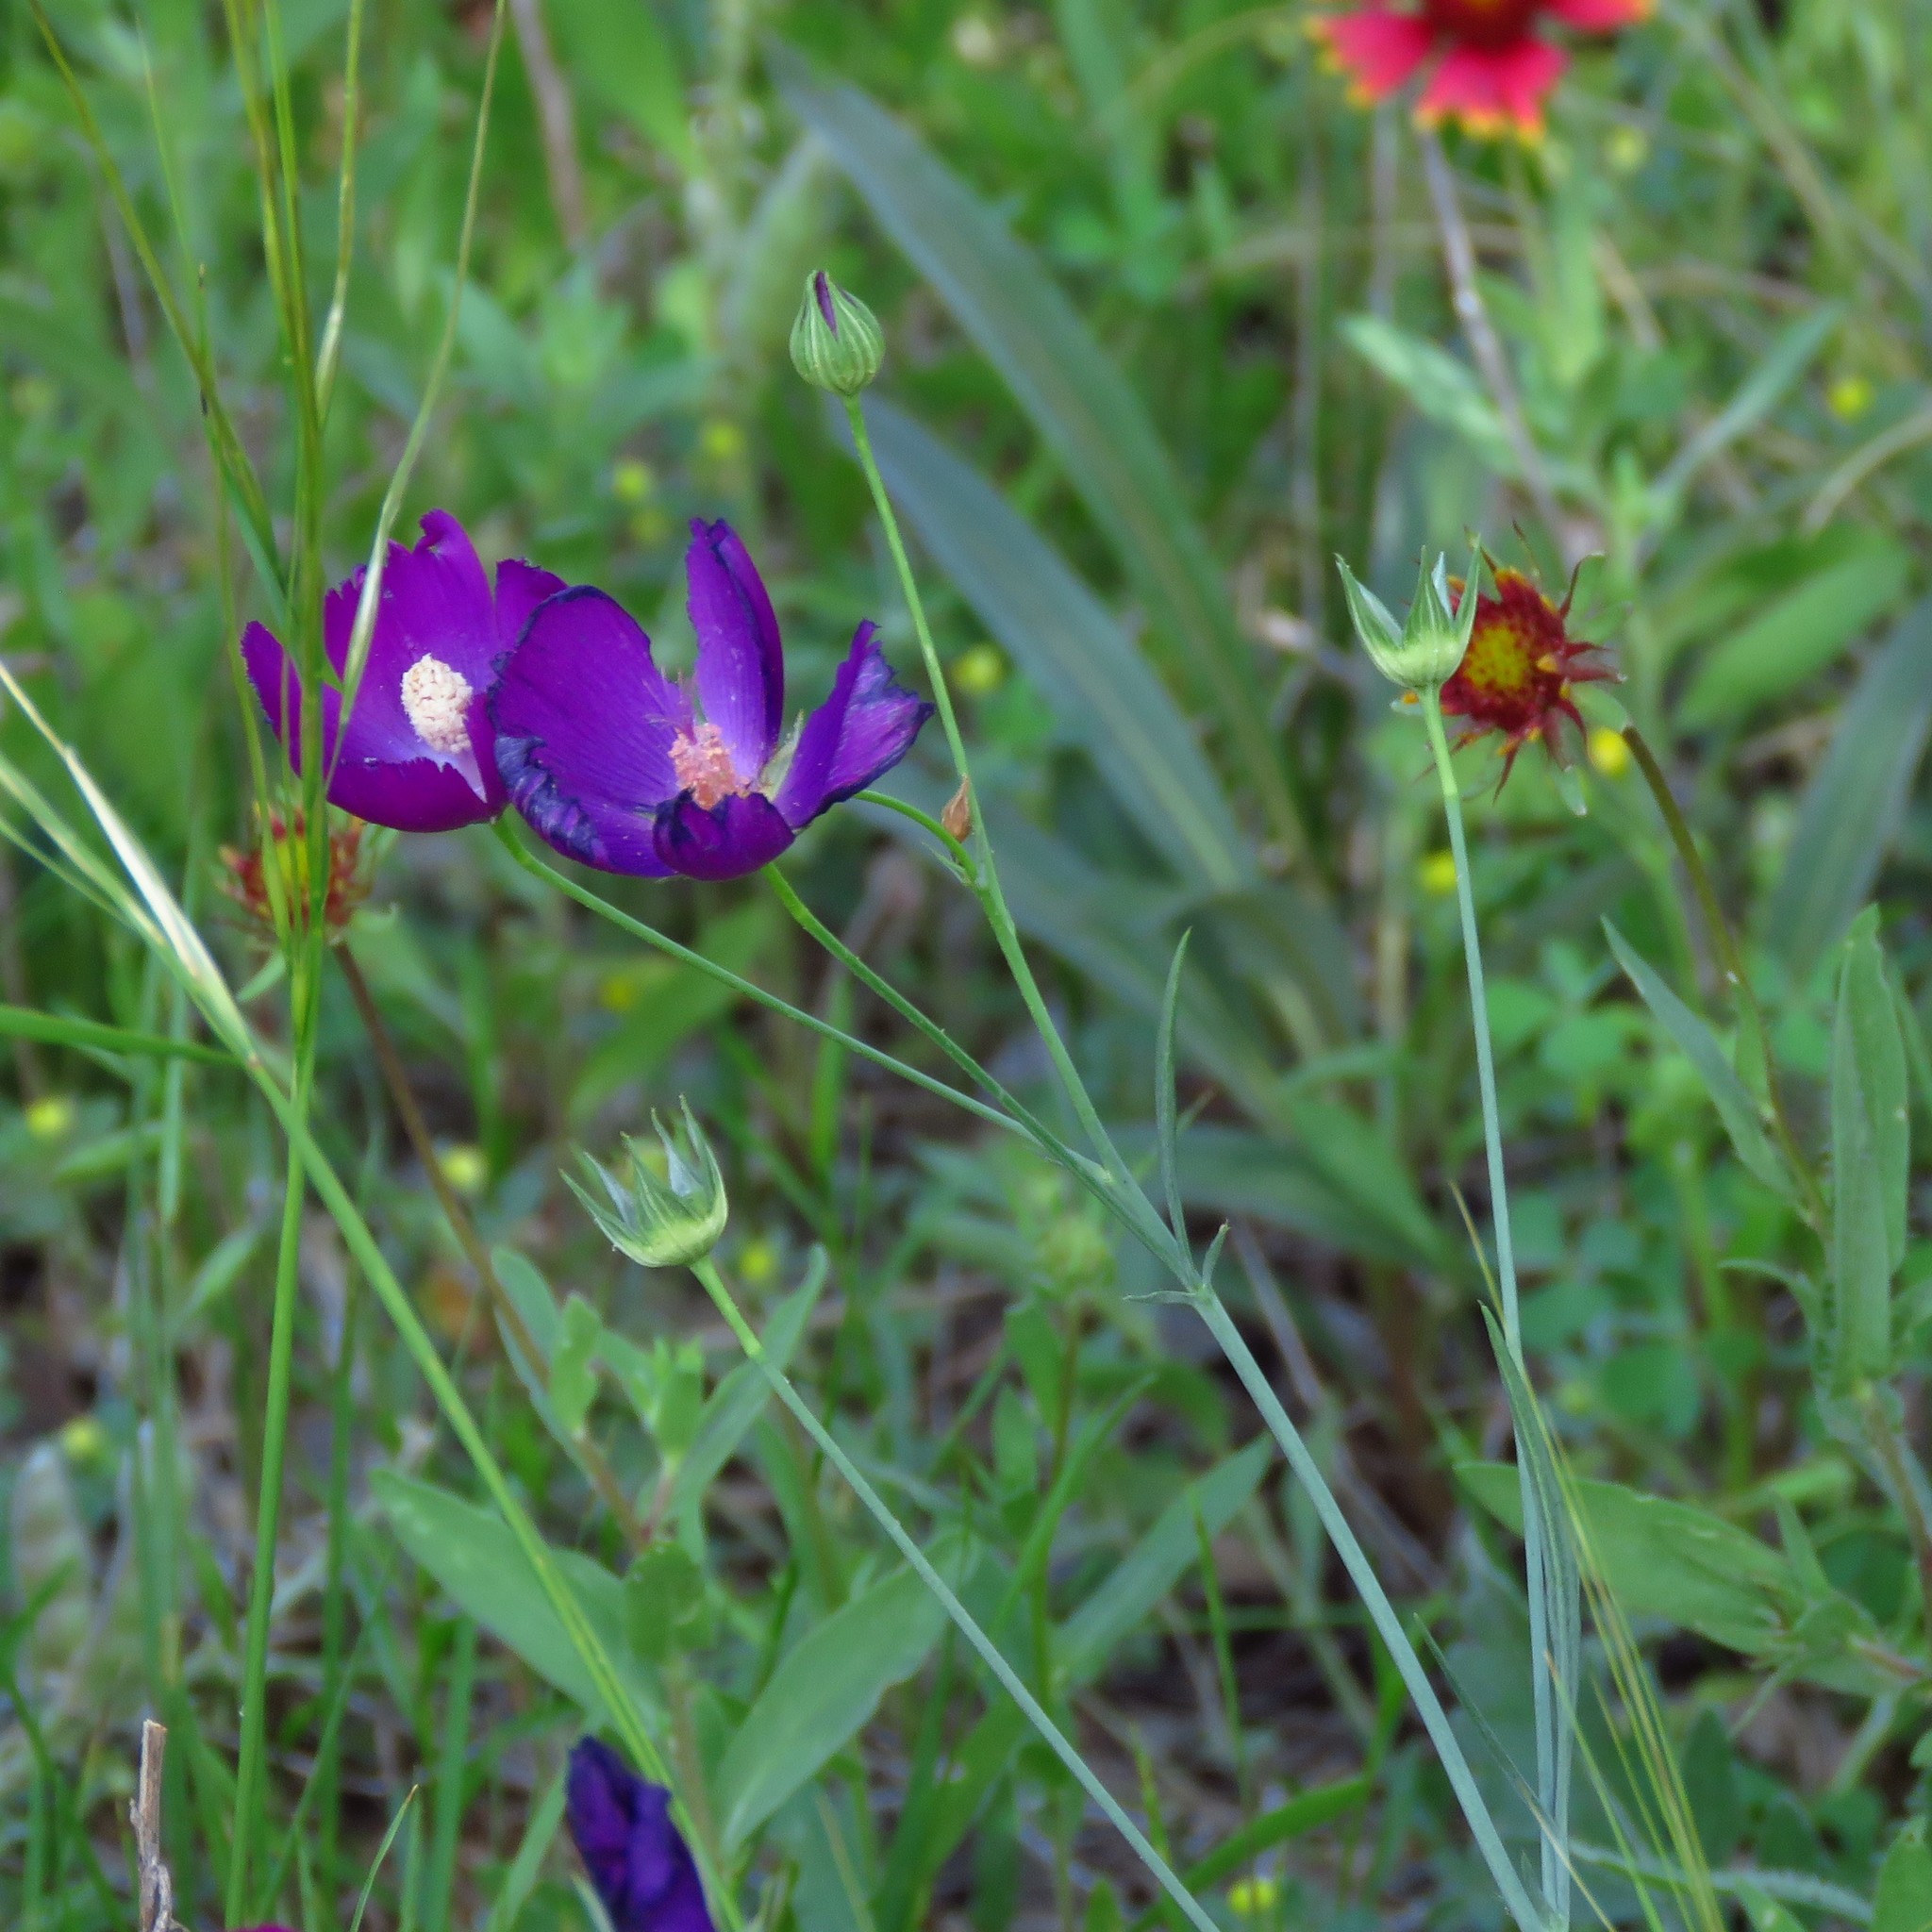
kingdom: Plantae
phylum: Tracheophyta
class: Magnoliopsida
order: Malvales
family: Malvaceae
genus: Callirhoe
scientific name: Callirhoe pedata
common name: Finger poppy-mallow
